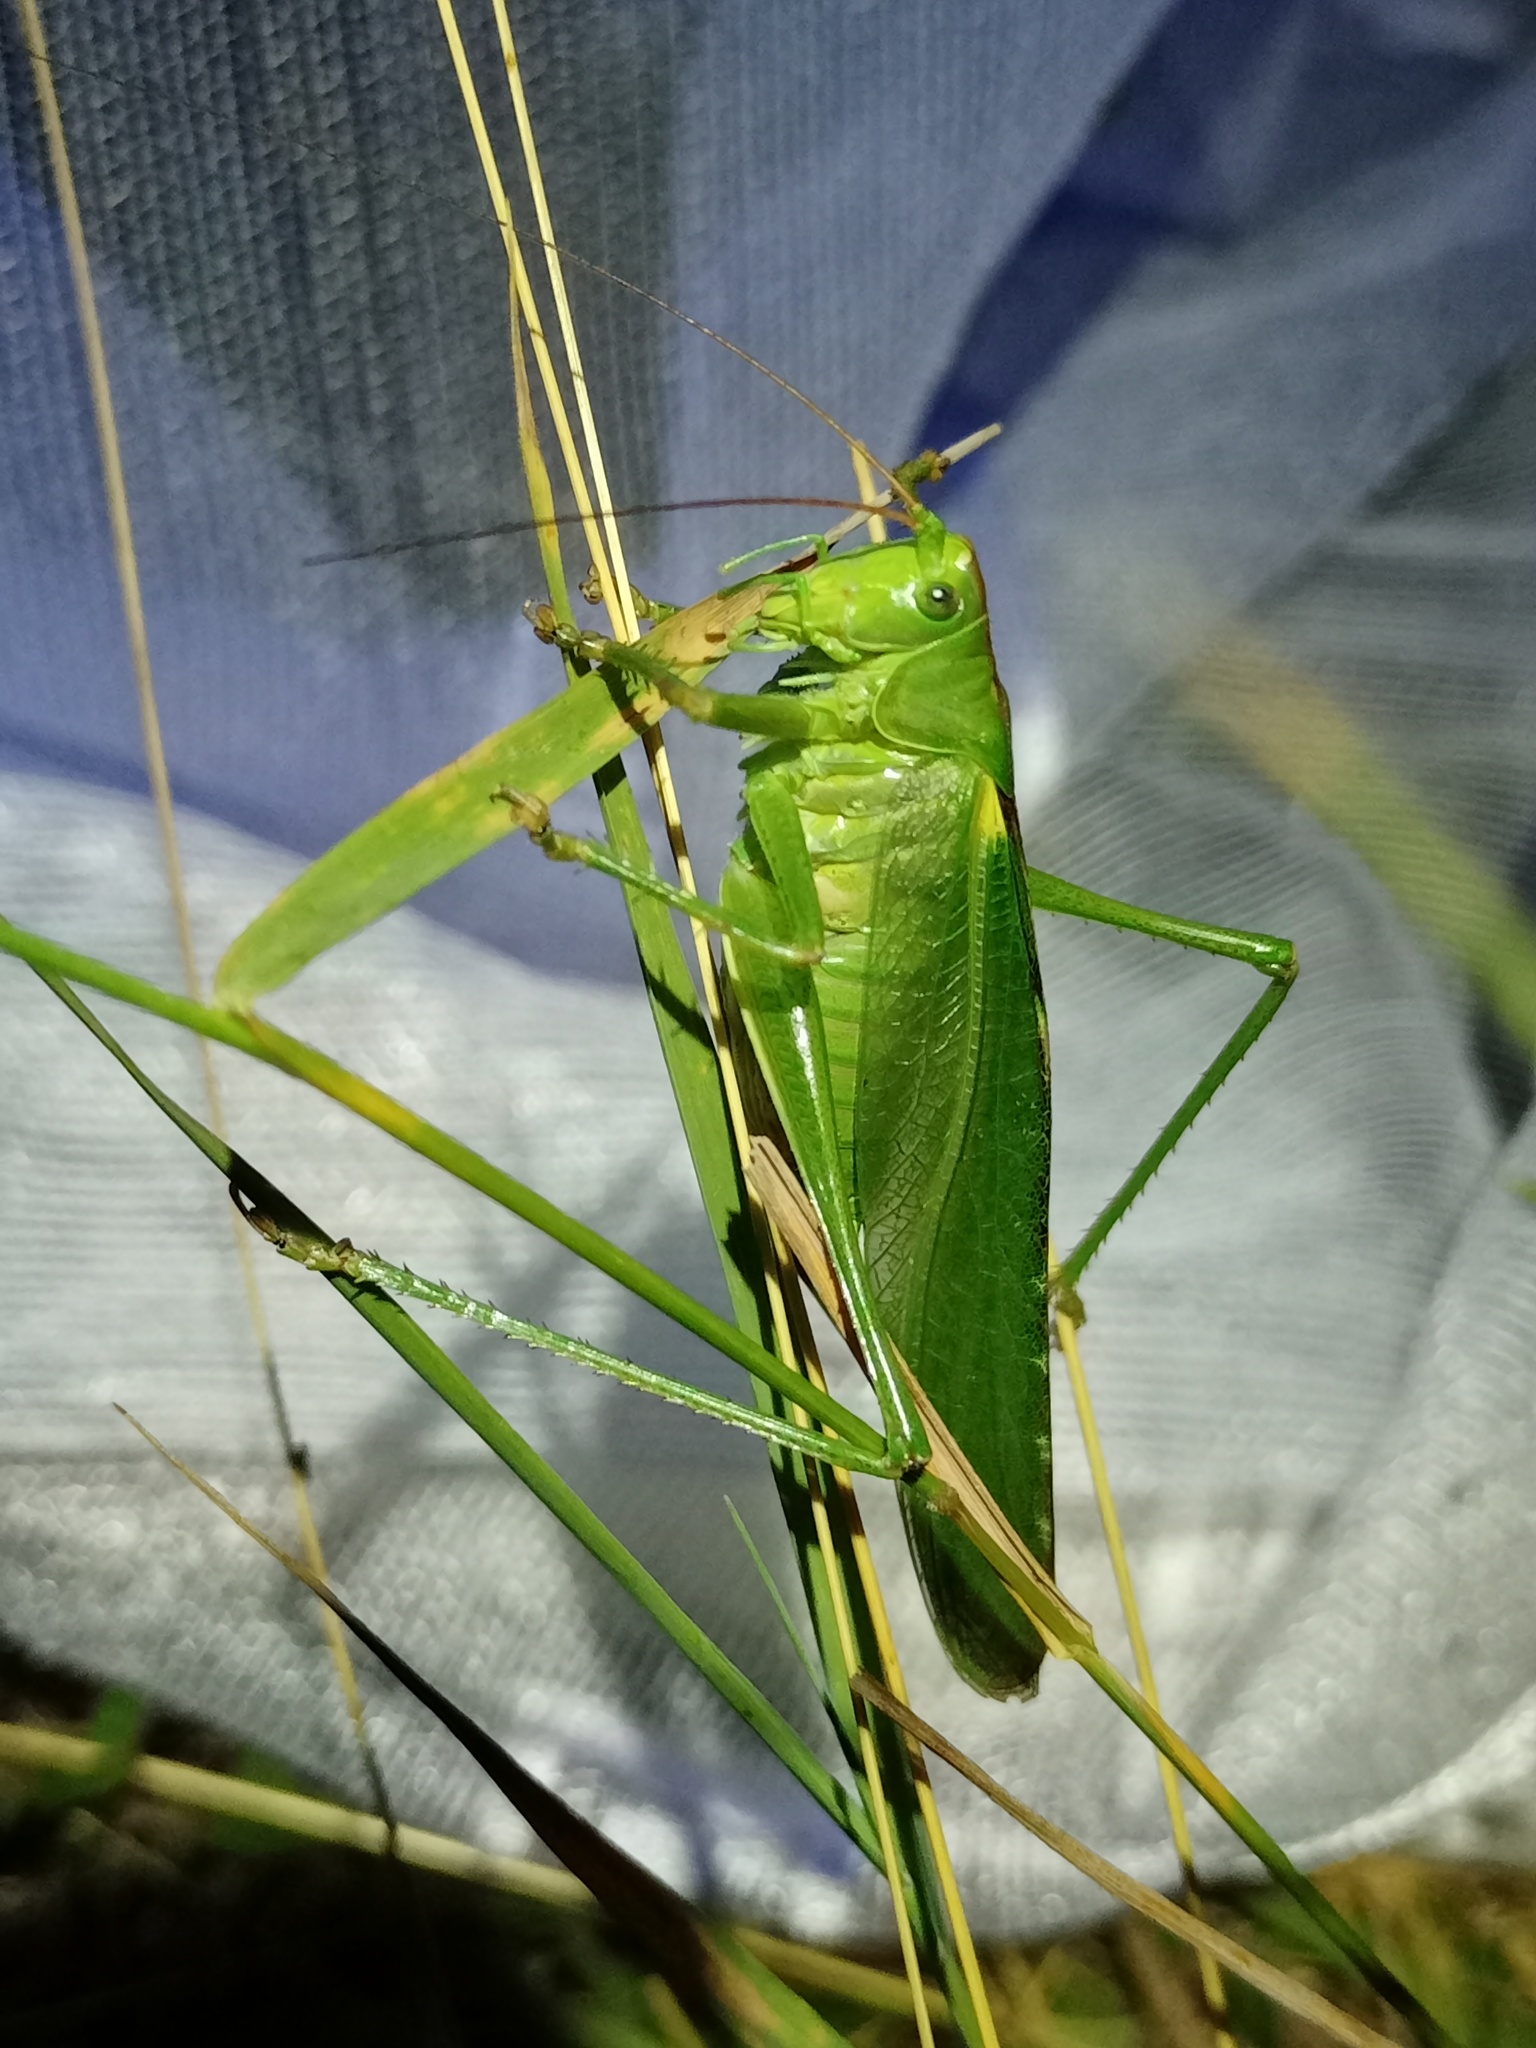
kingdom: Animalia
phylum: Arthropoda
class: Insecta
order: Orthoptera
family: Tettigoniidae
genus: Tettigonia
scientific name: Tettigonia viridissima
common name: Great green bush-cricket
